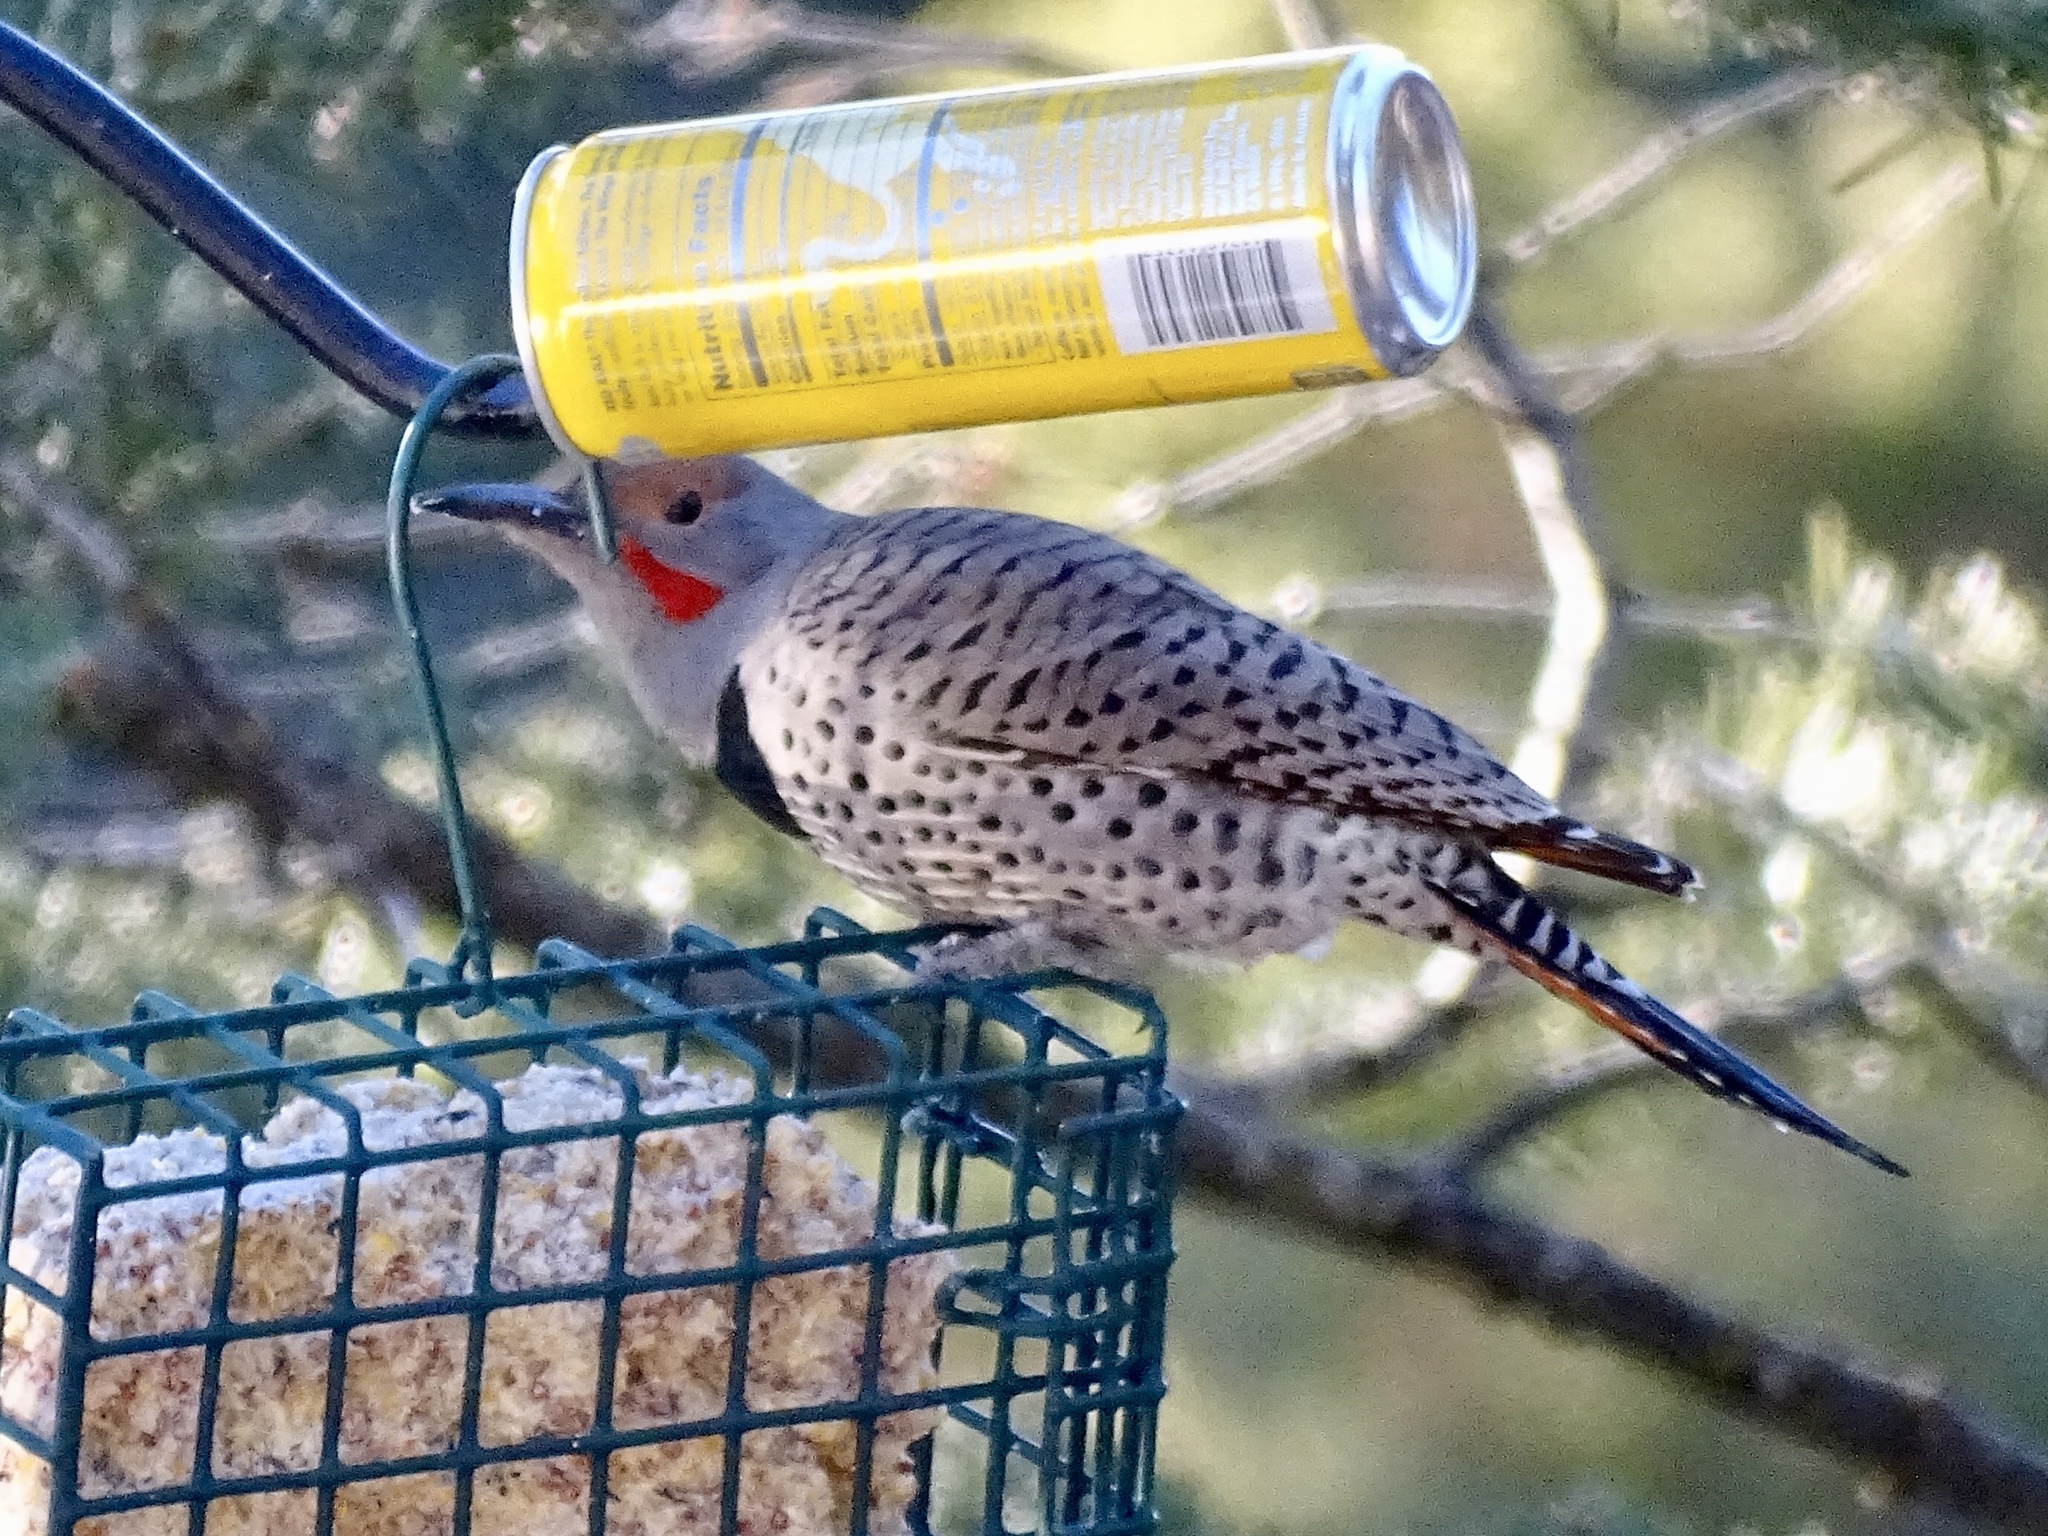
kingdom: Animalia
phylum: Chordata
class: Aves
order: Piciformes
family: Picidae
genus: Colaptes
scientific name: Colaptes auratus
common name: Northern flicker
